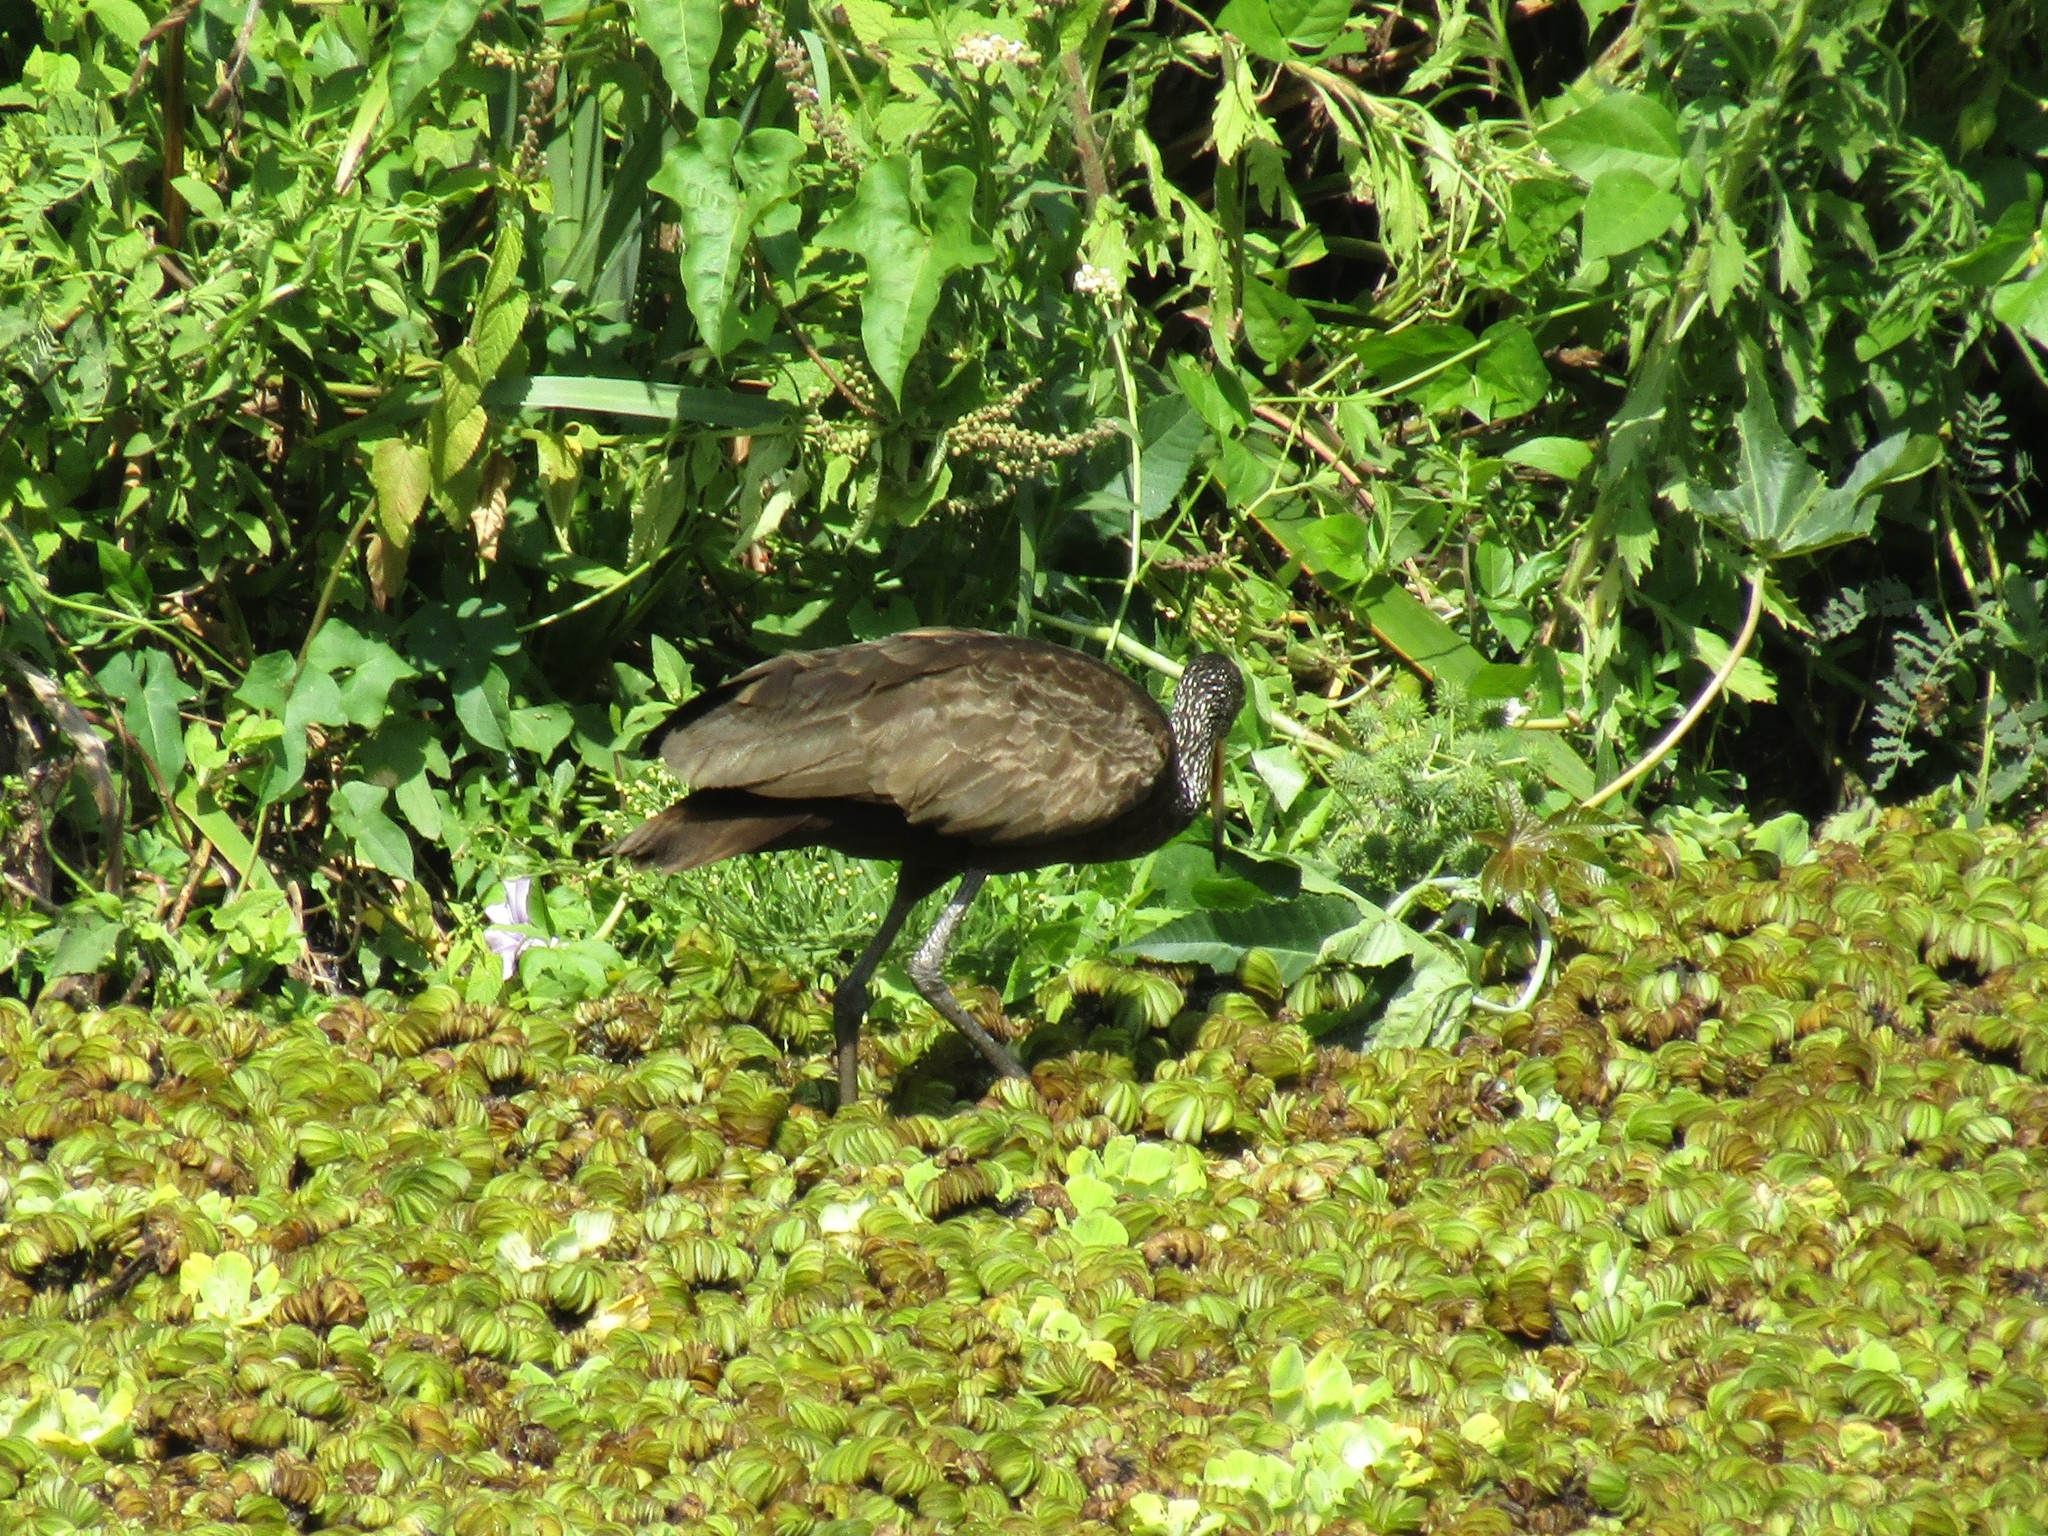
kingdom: Animalia
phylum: Chordata
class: Aves
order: Gruiformes
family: Aramidae
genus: Aramus
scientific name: Aramus guarauna
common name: Limpkin
